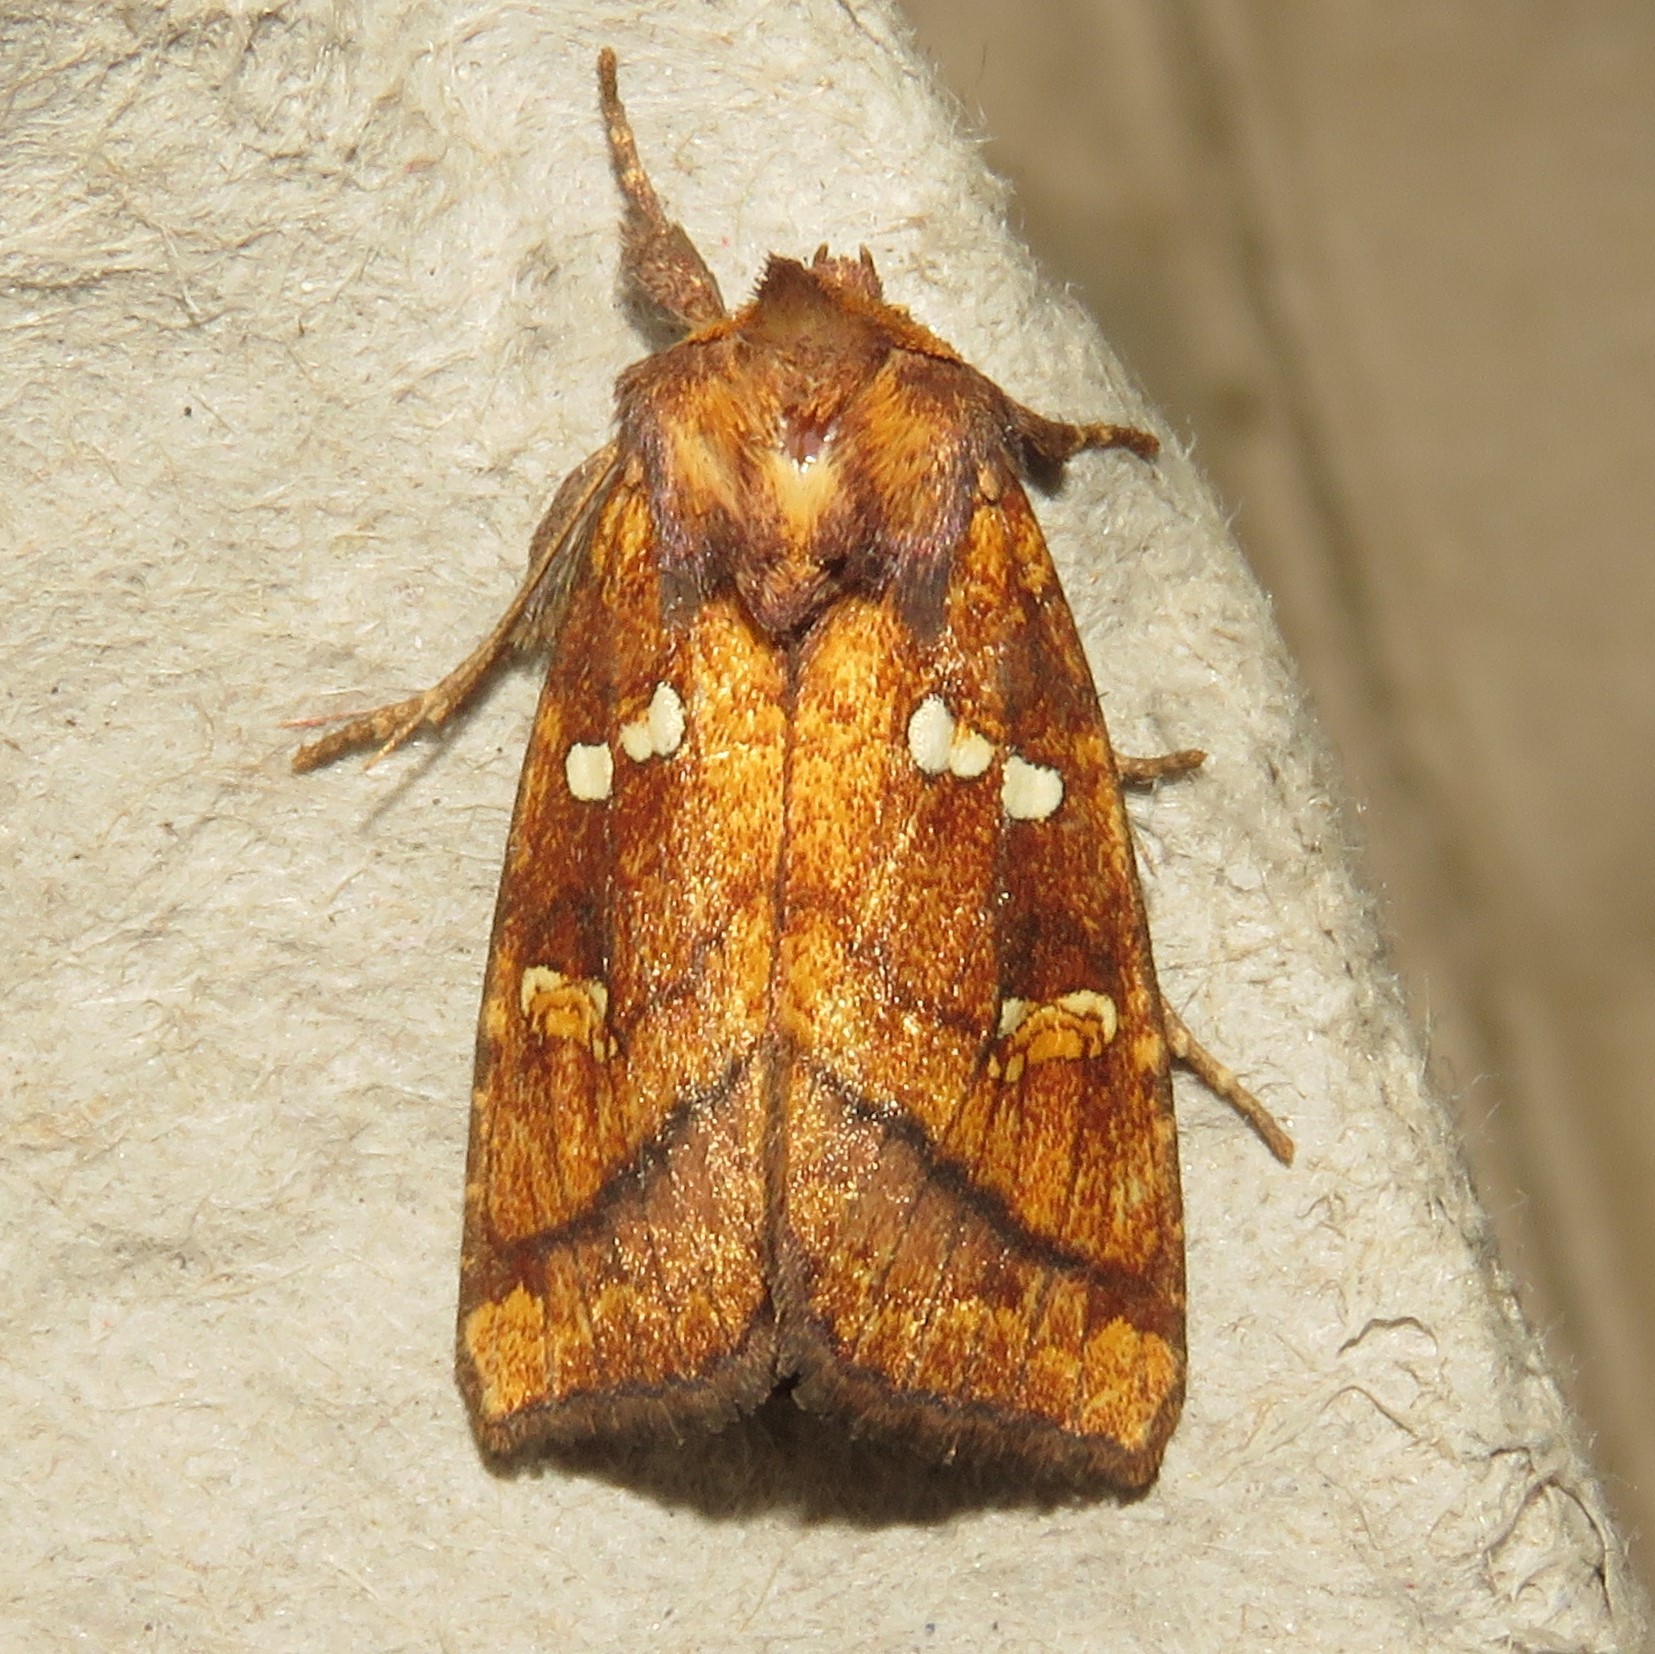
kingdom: Animalia
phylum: Arthropoda
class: Insecta
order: Lepidoptera
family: Noctuidae
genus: Papaipema
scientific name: Papaipema pterisii
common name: Bracken borer moth
